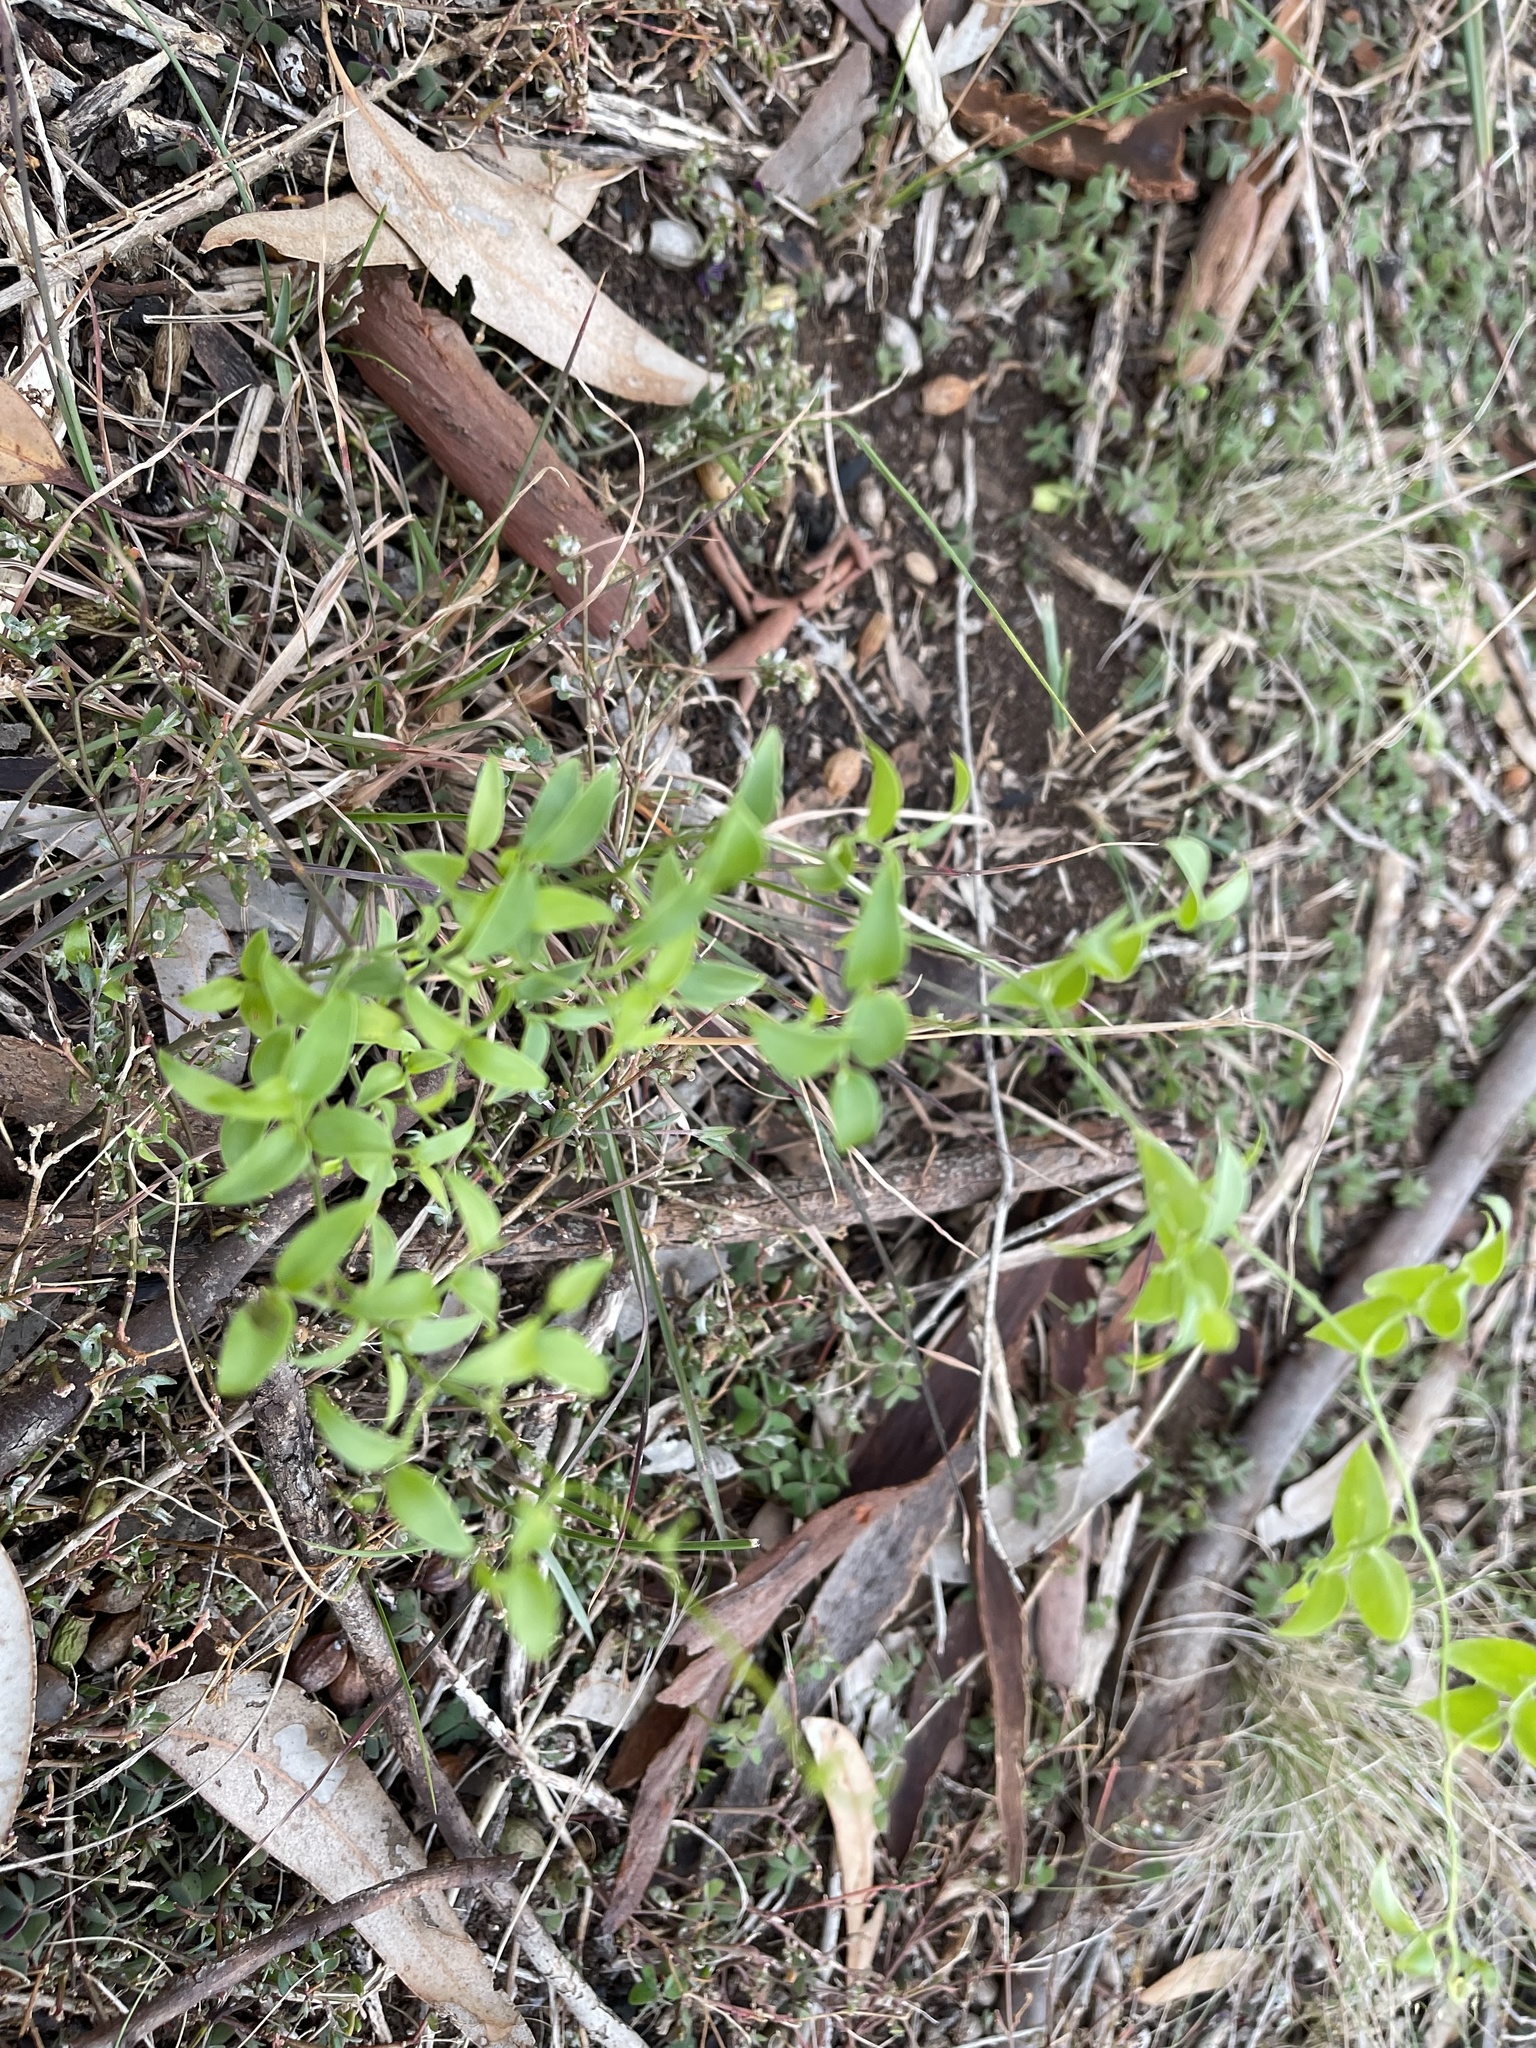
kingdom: Plantae
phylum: Tracheophyta
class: Liliopsida
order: Asparagales
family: Asparagaceae
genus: Asparagus
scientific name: Asparagus asparagoides
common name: African asparagus fern
